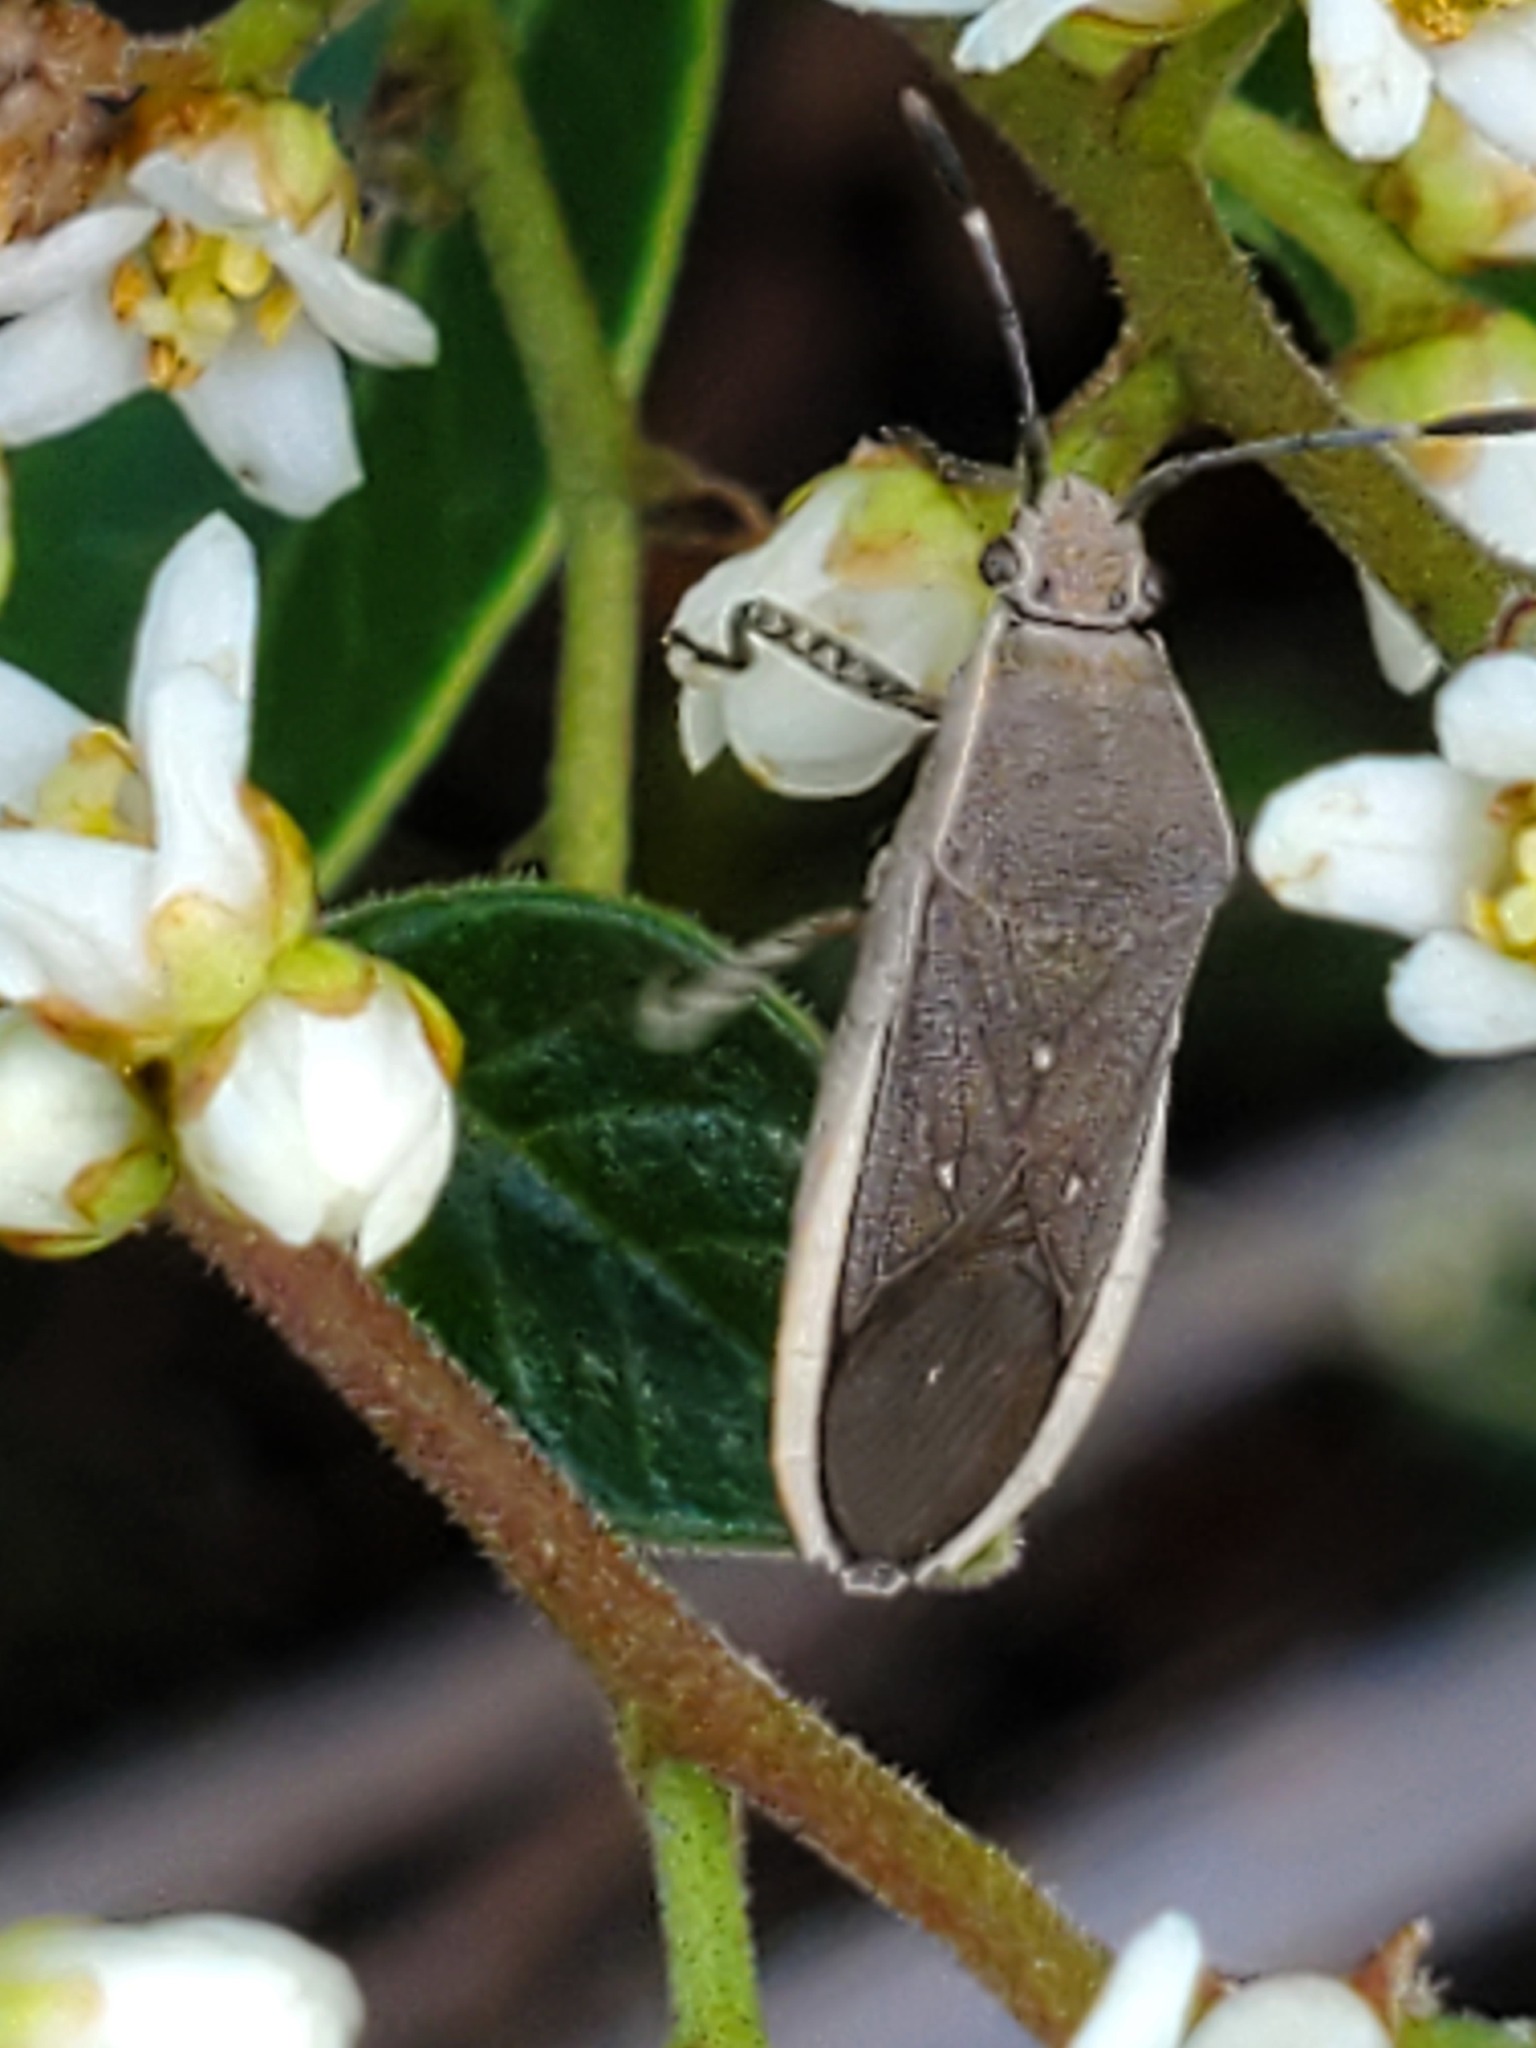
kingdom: Animalia
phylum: Arthropoda
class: Insecta
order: Hemiptera
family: Coreidae
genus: Catorhintha
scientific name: Catorhintha texana
